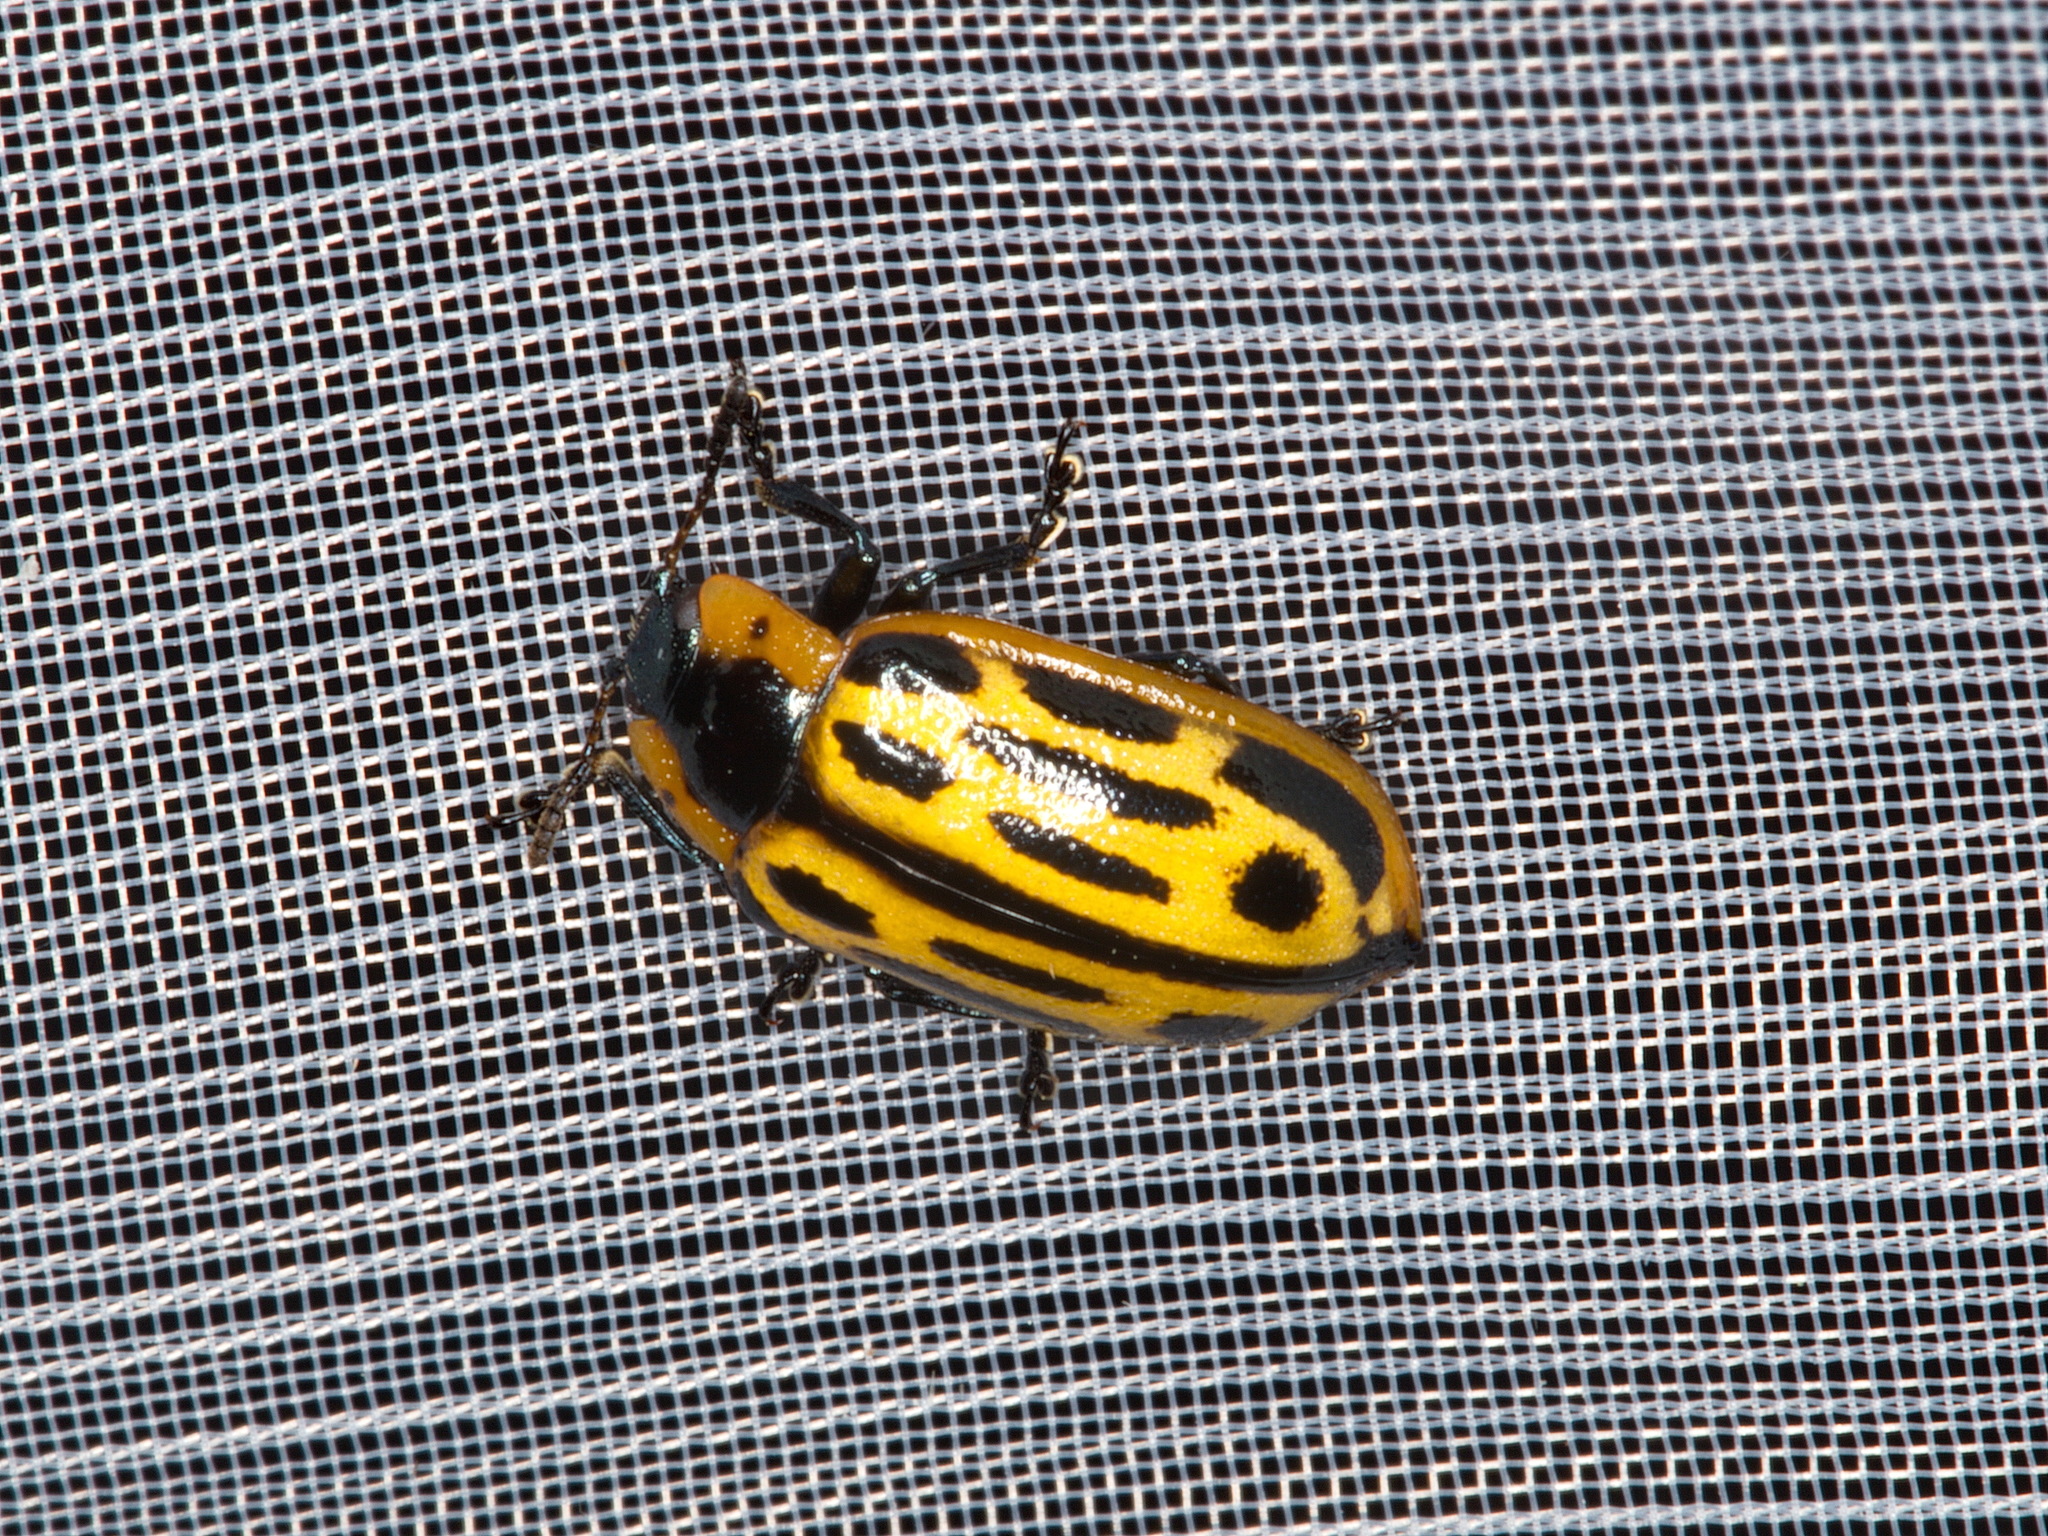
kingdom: Animalia
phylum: Arthropoda
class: Insecta
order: Coleoptera
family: Chrysomelidae
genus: Aethiopocassis
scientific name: Aethiopocassis scripta
